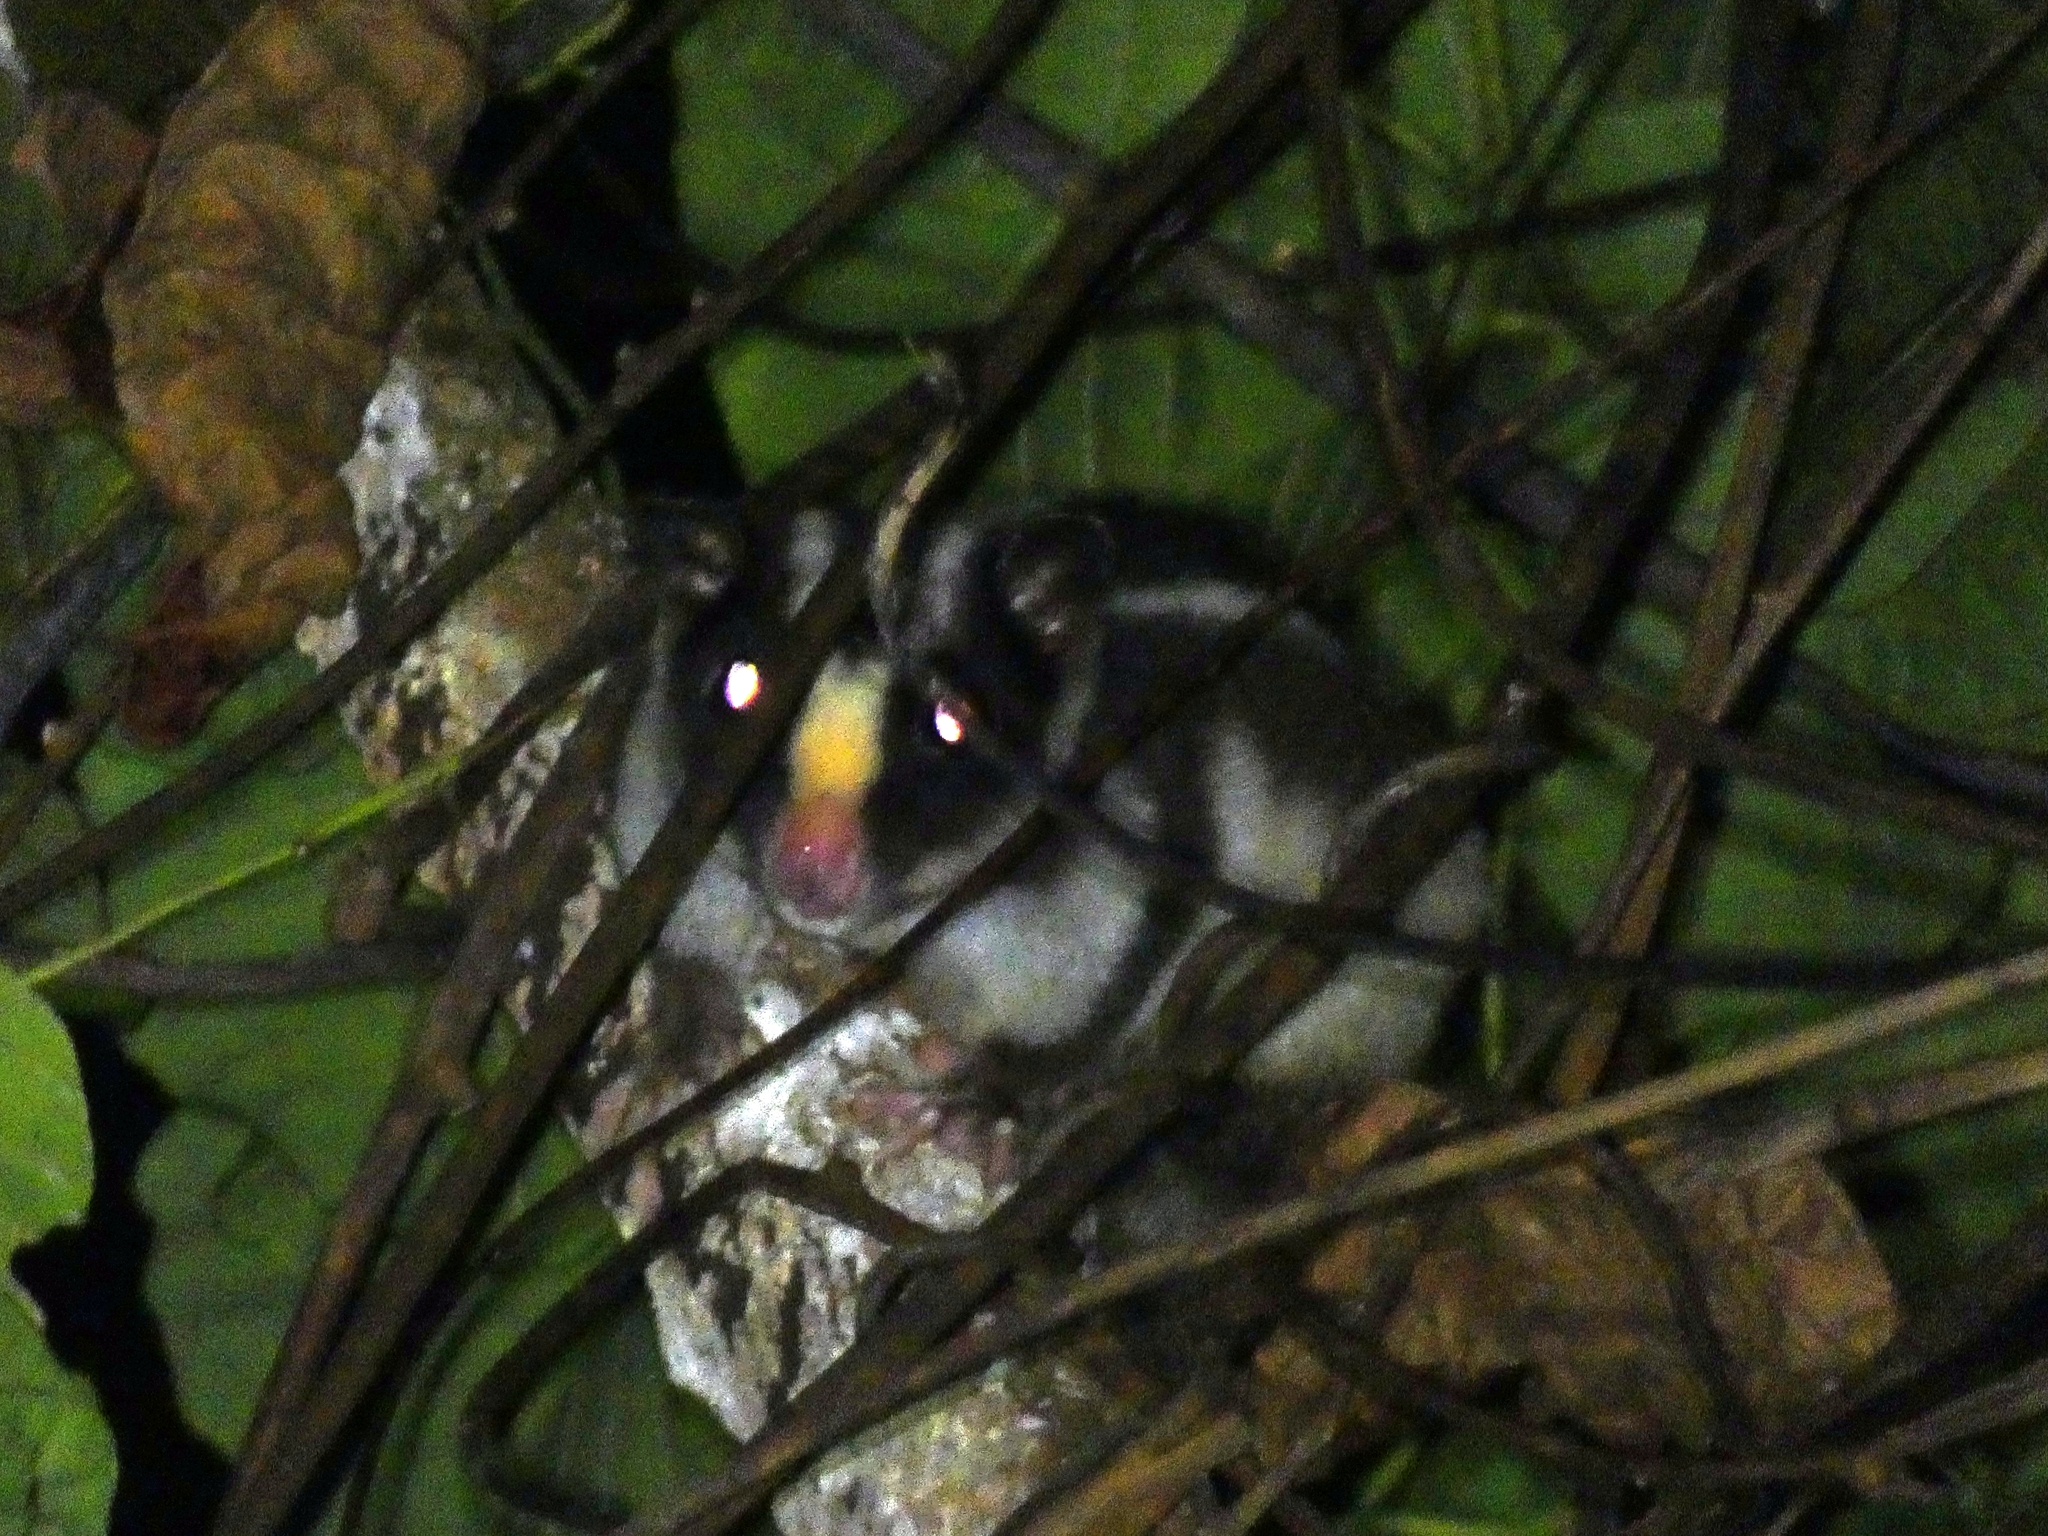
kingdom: Animalia
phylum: Chordata
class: Mammalia
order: Diprotodontia
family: Petauridae
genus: Dactylopsila
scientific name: Dactylopsila trivirgata
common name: Striped possum
